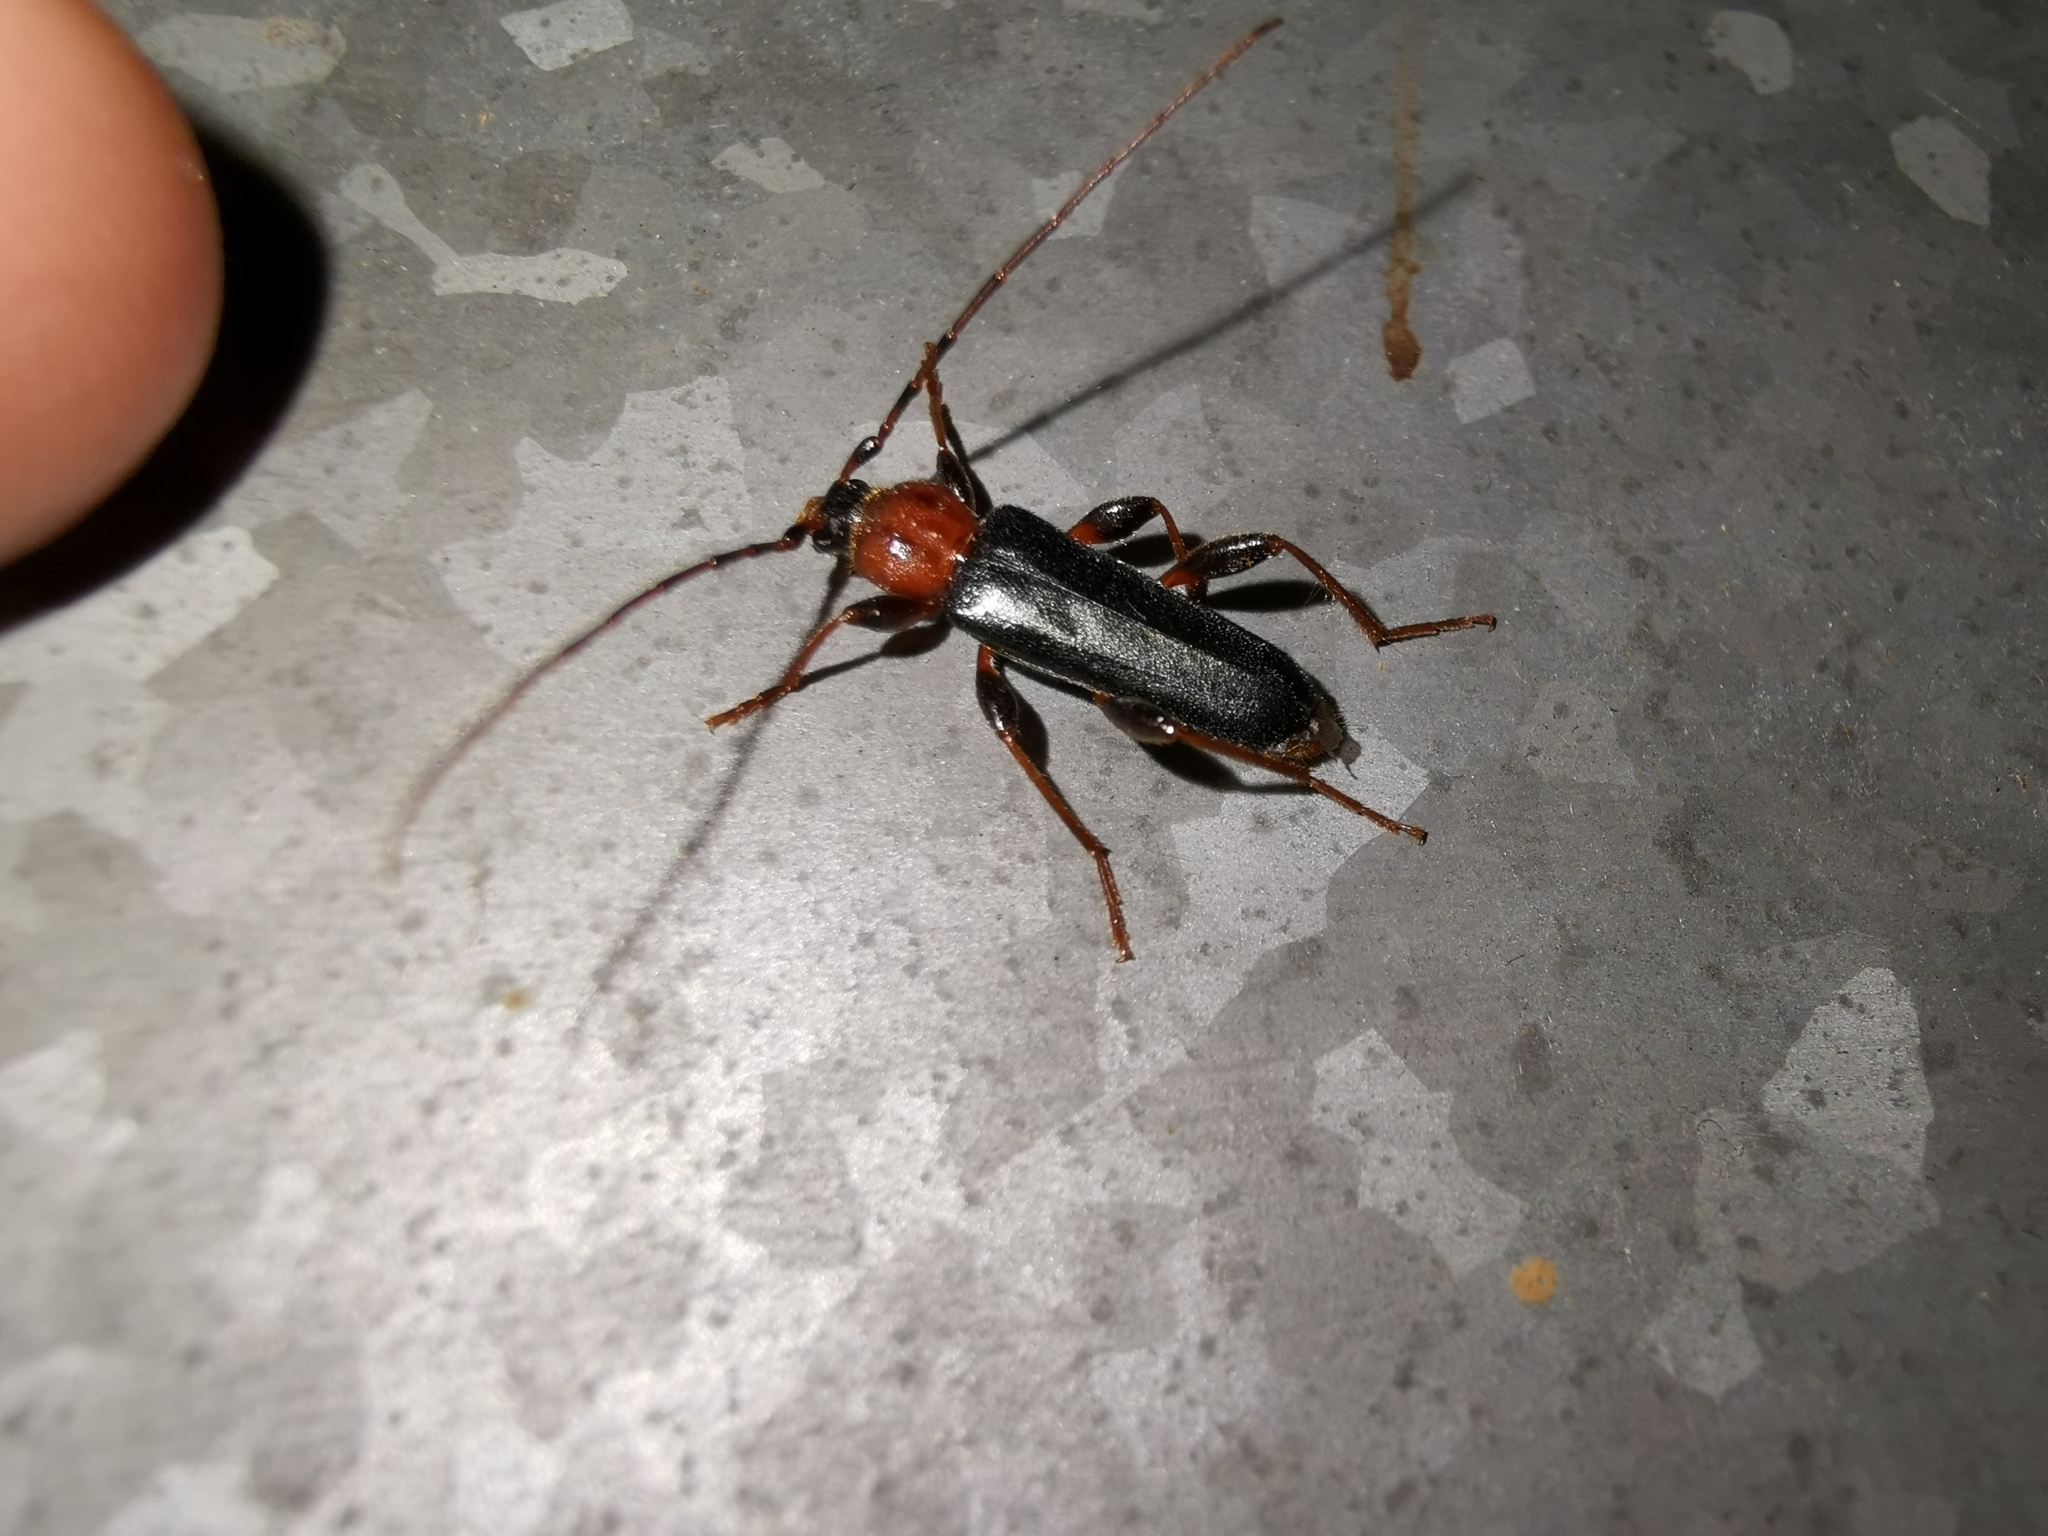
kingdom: Animalia
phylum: Arthropoda
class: Insecta
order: Coleoptera
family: Cerambycidae
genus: Phymatodes
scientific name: Phymatodes testaceus
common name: Long-horned beetle
